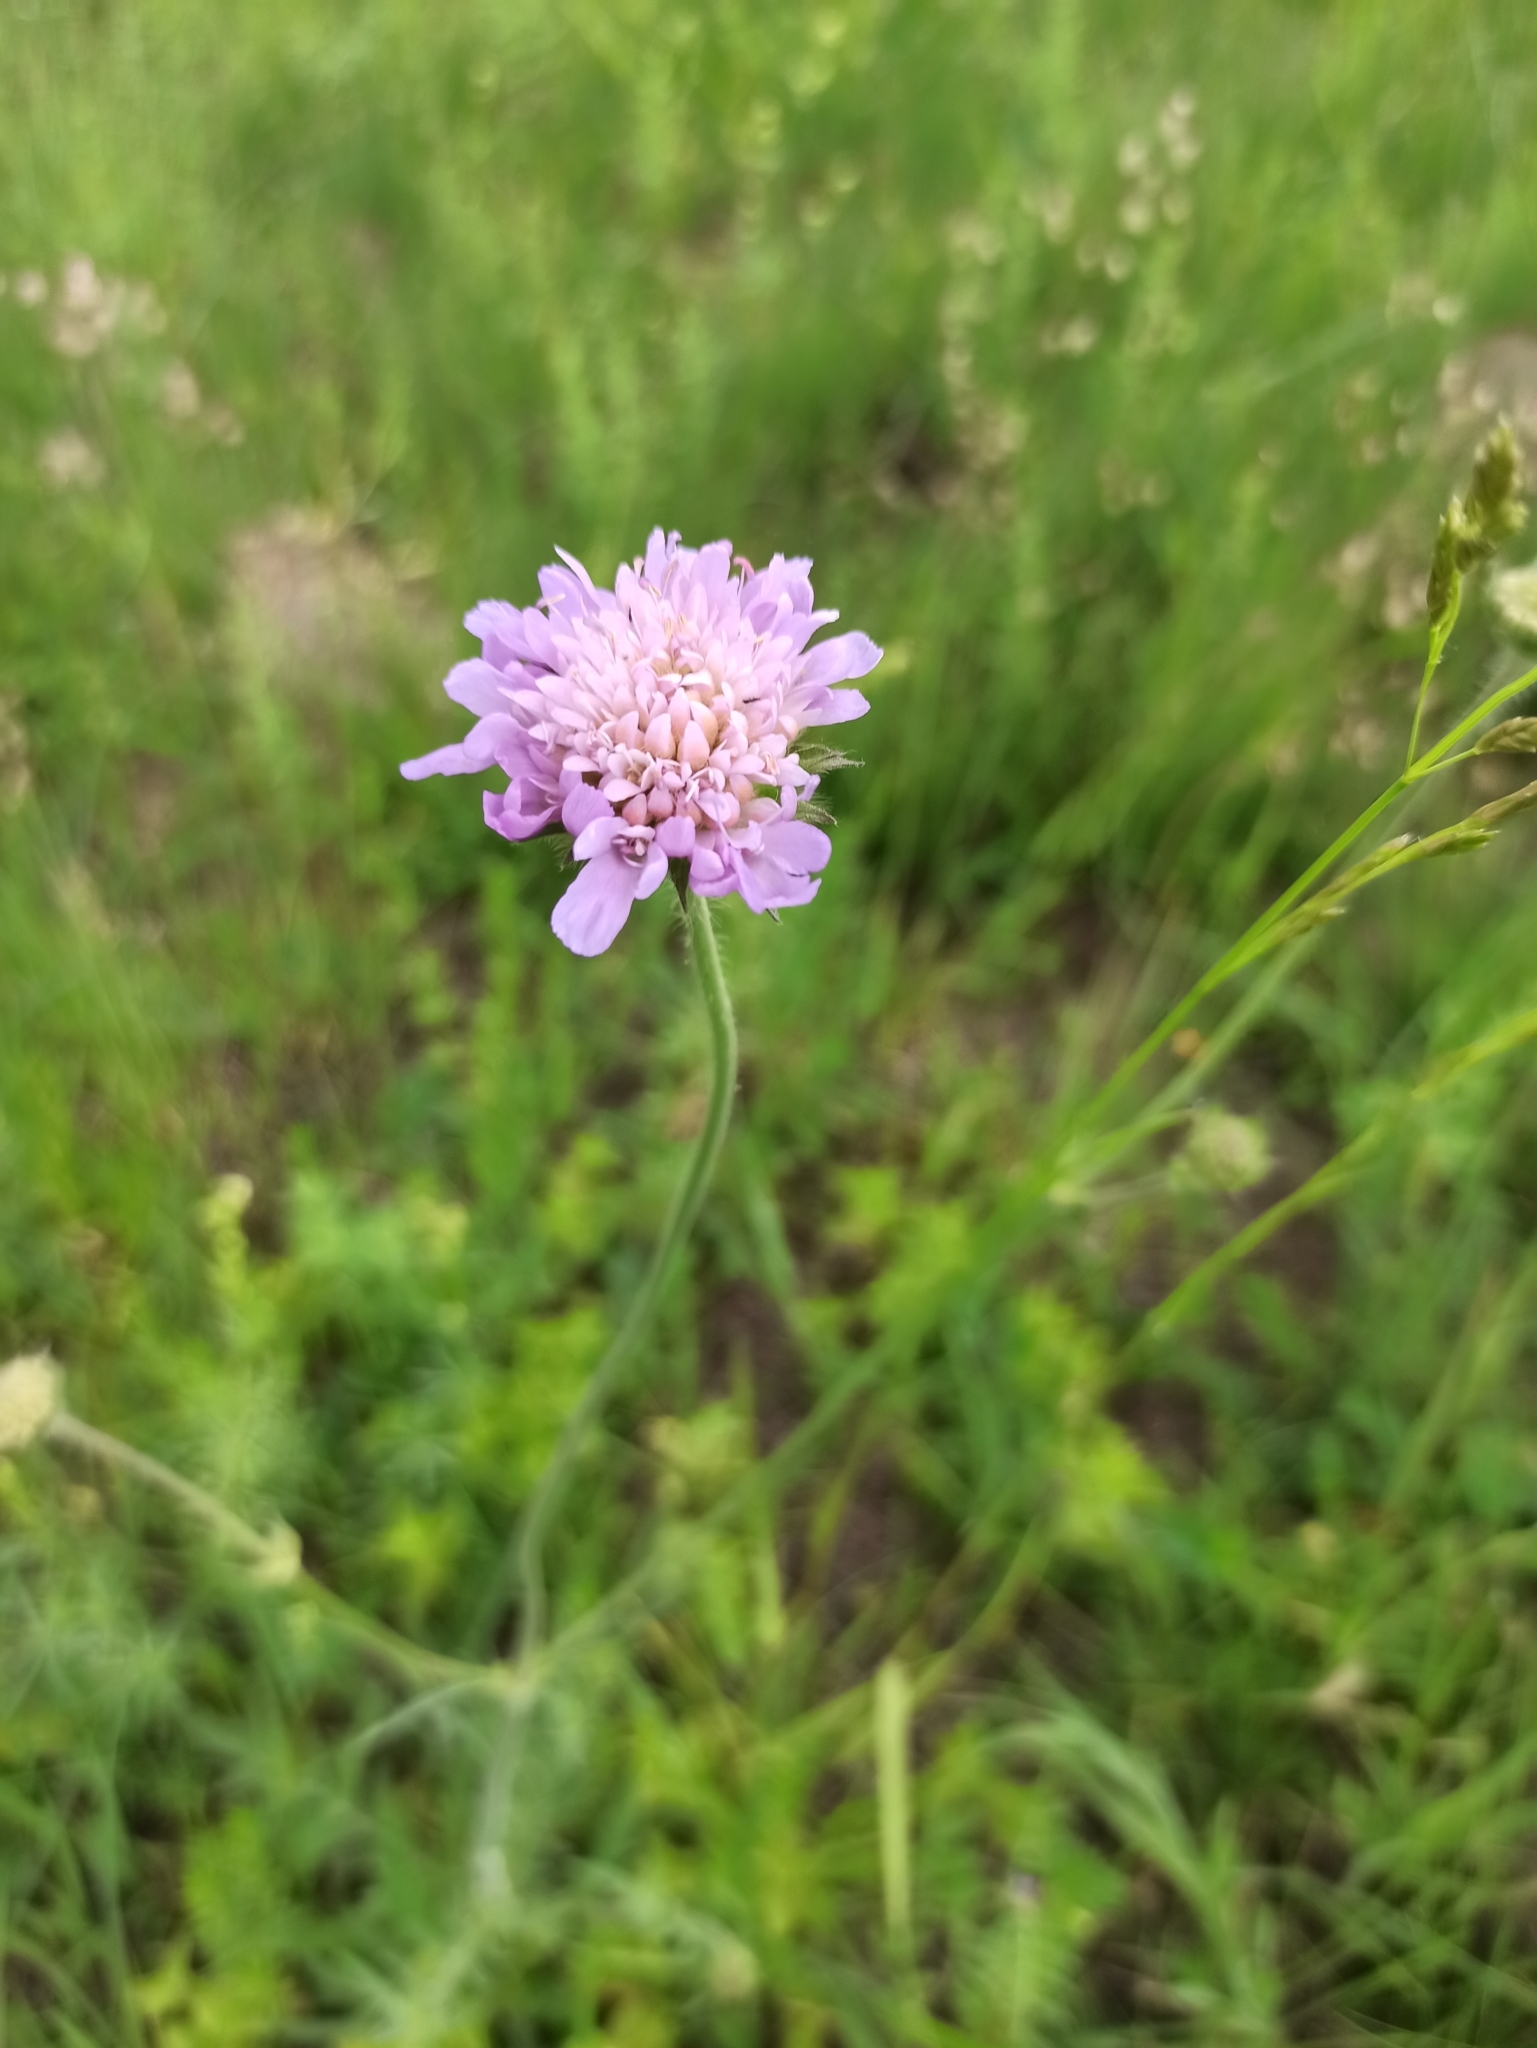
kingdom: Plantae
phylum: Tracheophyta
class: Magnoliopsida
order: Dipsacales
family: Caprifoliaceae
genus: Knautia
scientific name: Knautia arvensis
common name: Field scabiosa
